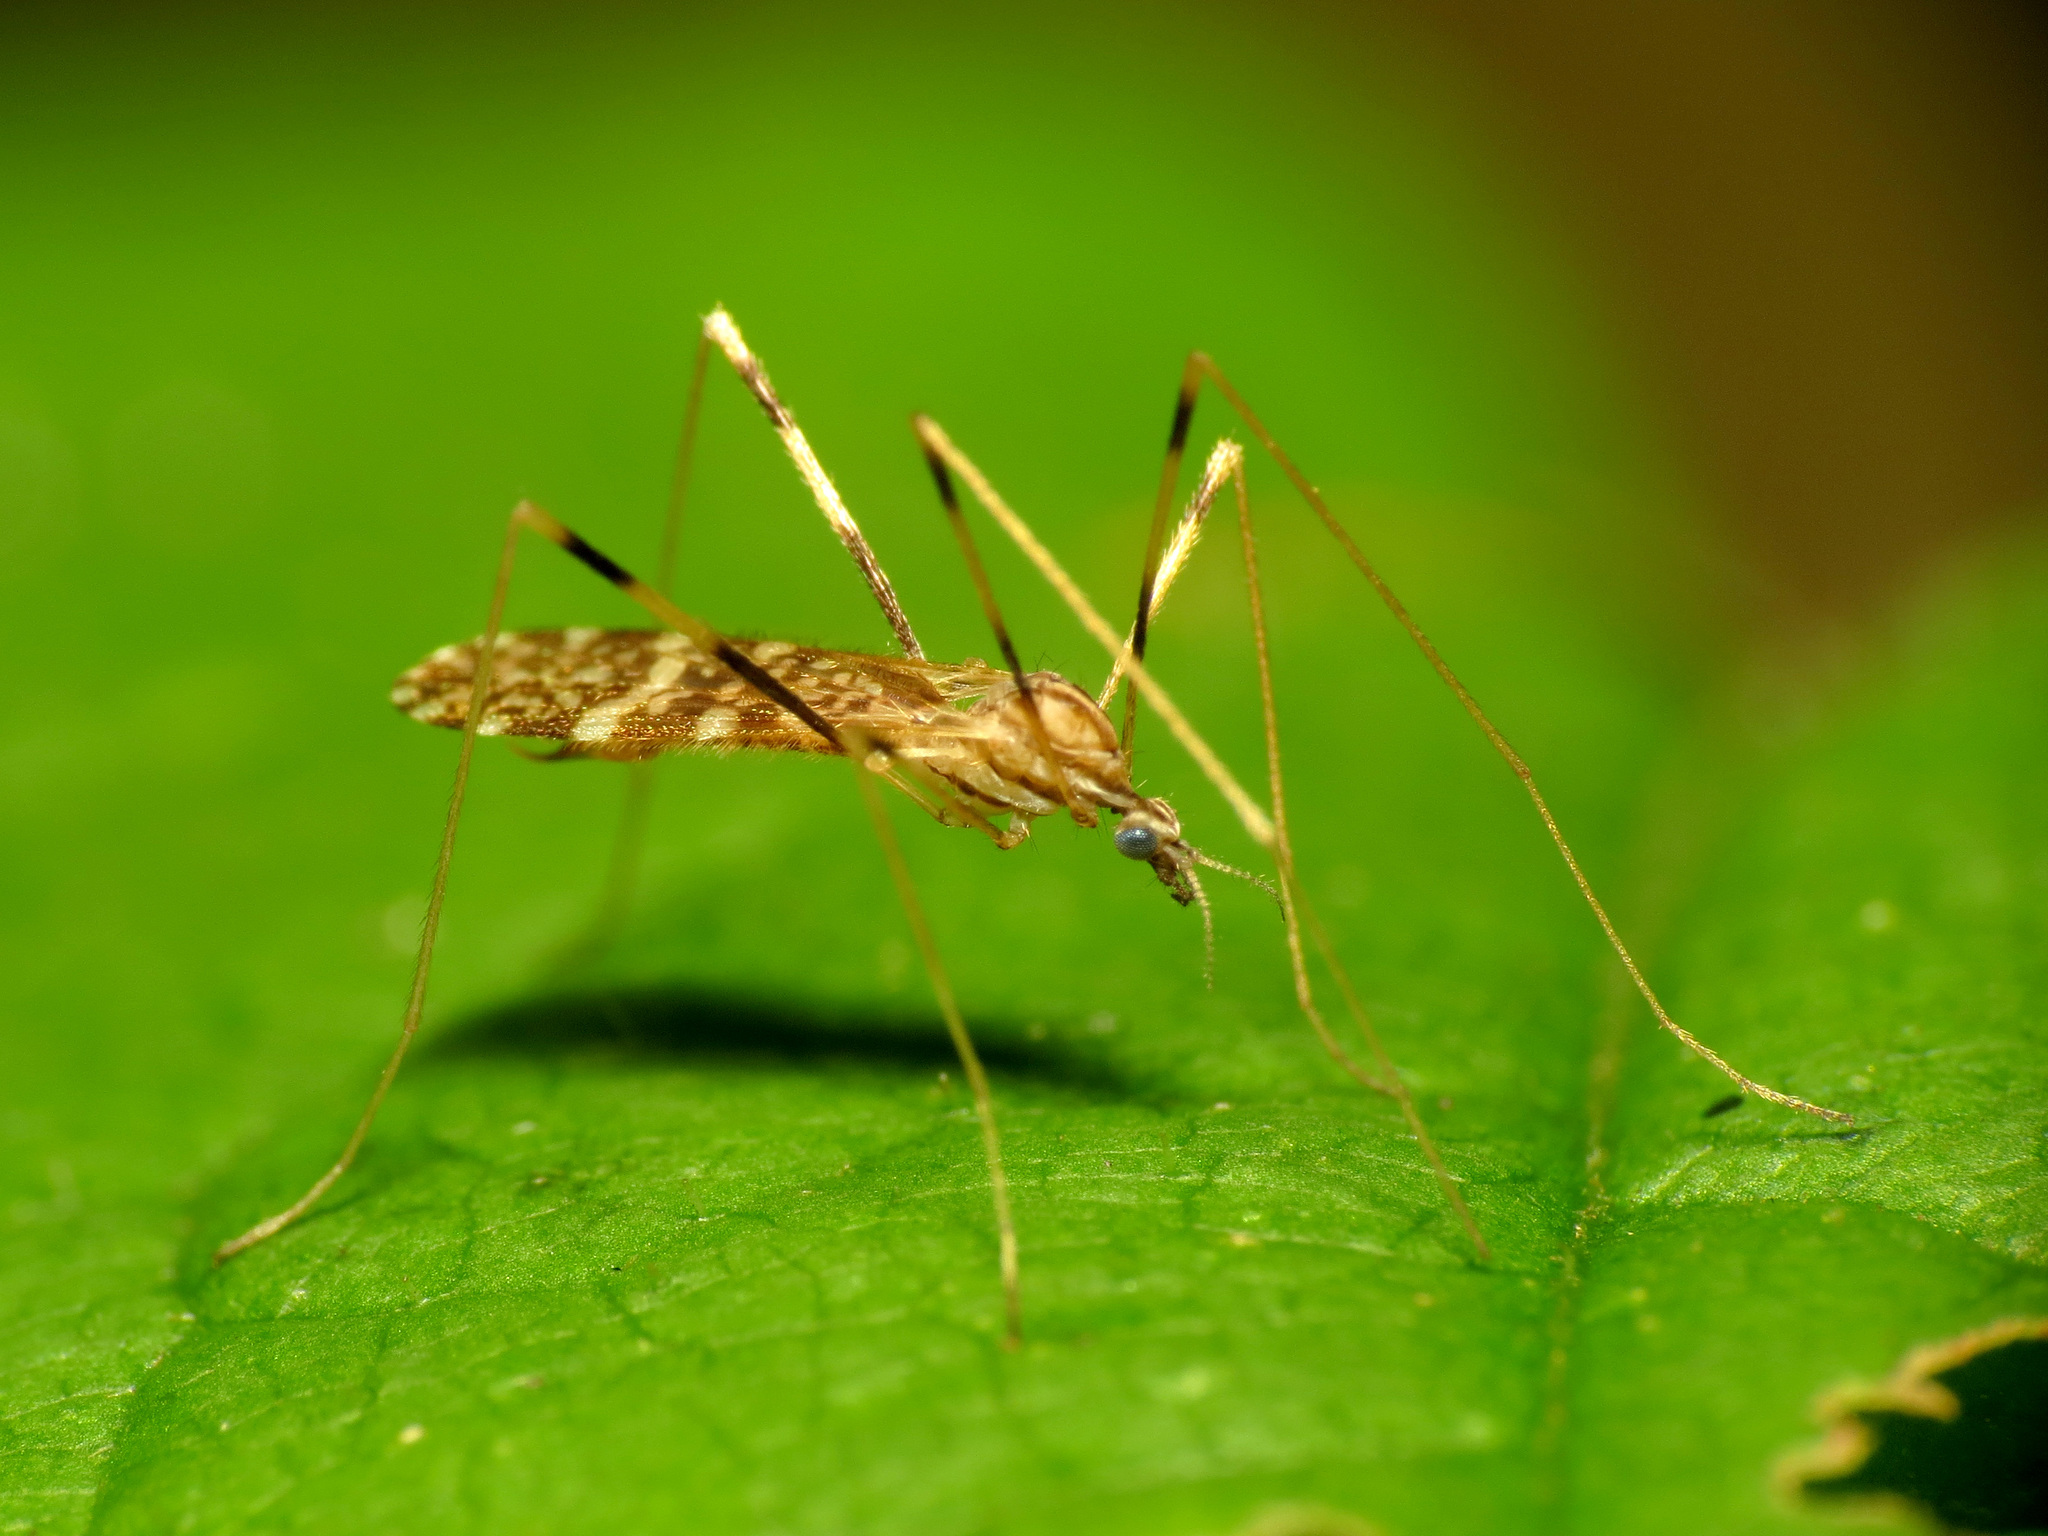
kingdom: Animalia
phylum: Arthropoda
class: Insecta
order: Diptera
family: Limoniidae
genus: Erioptera
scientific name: Erioptera caliptera
